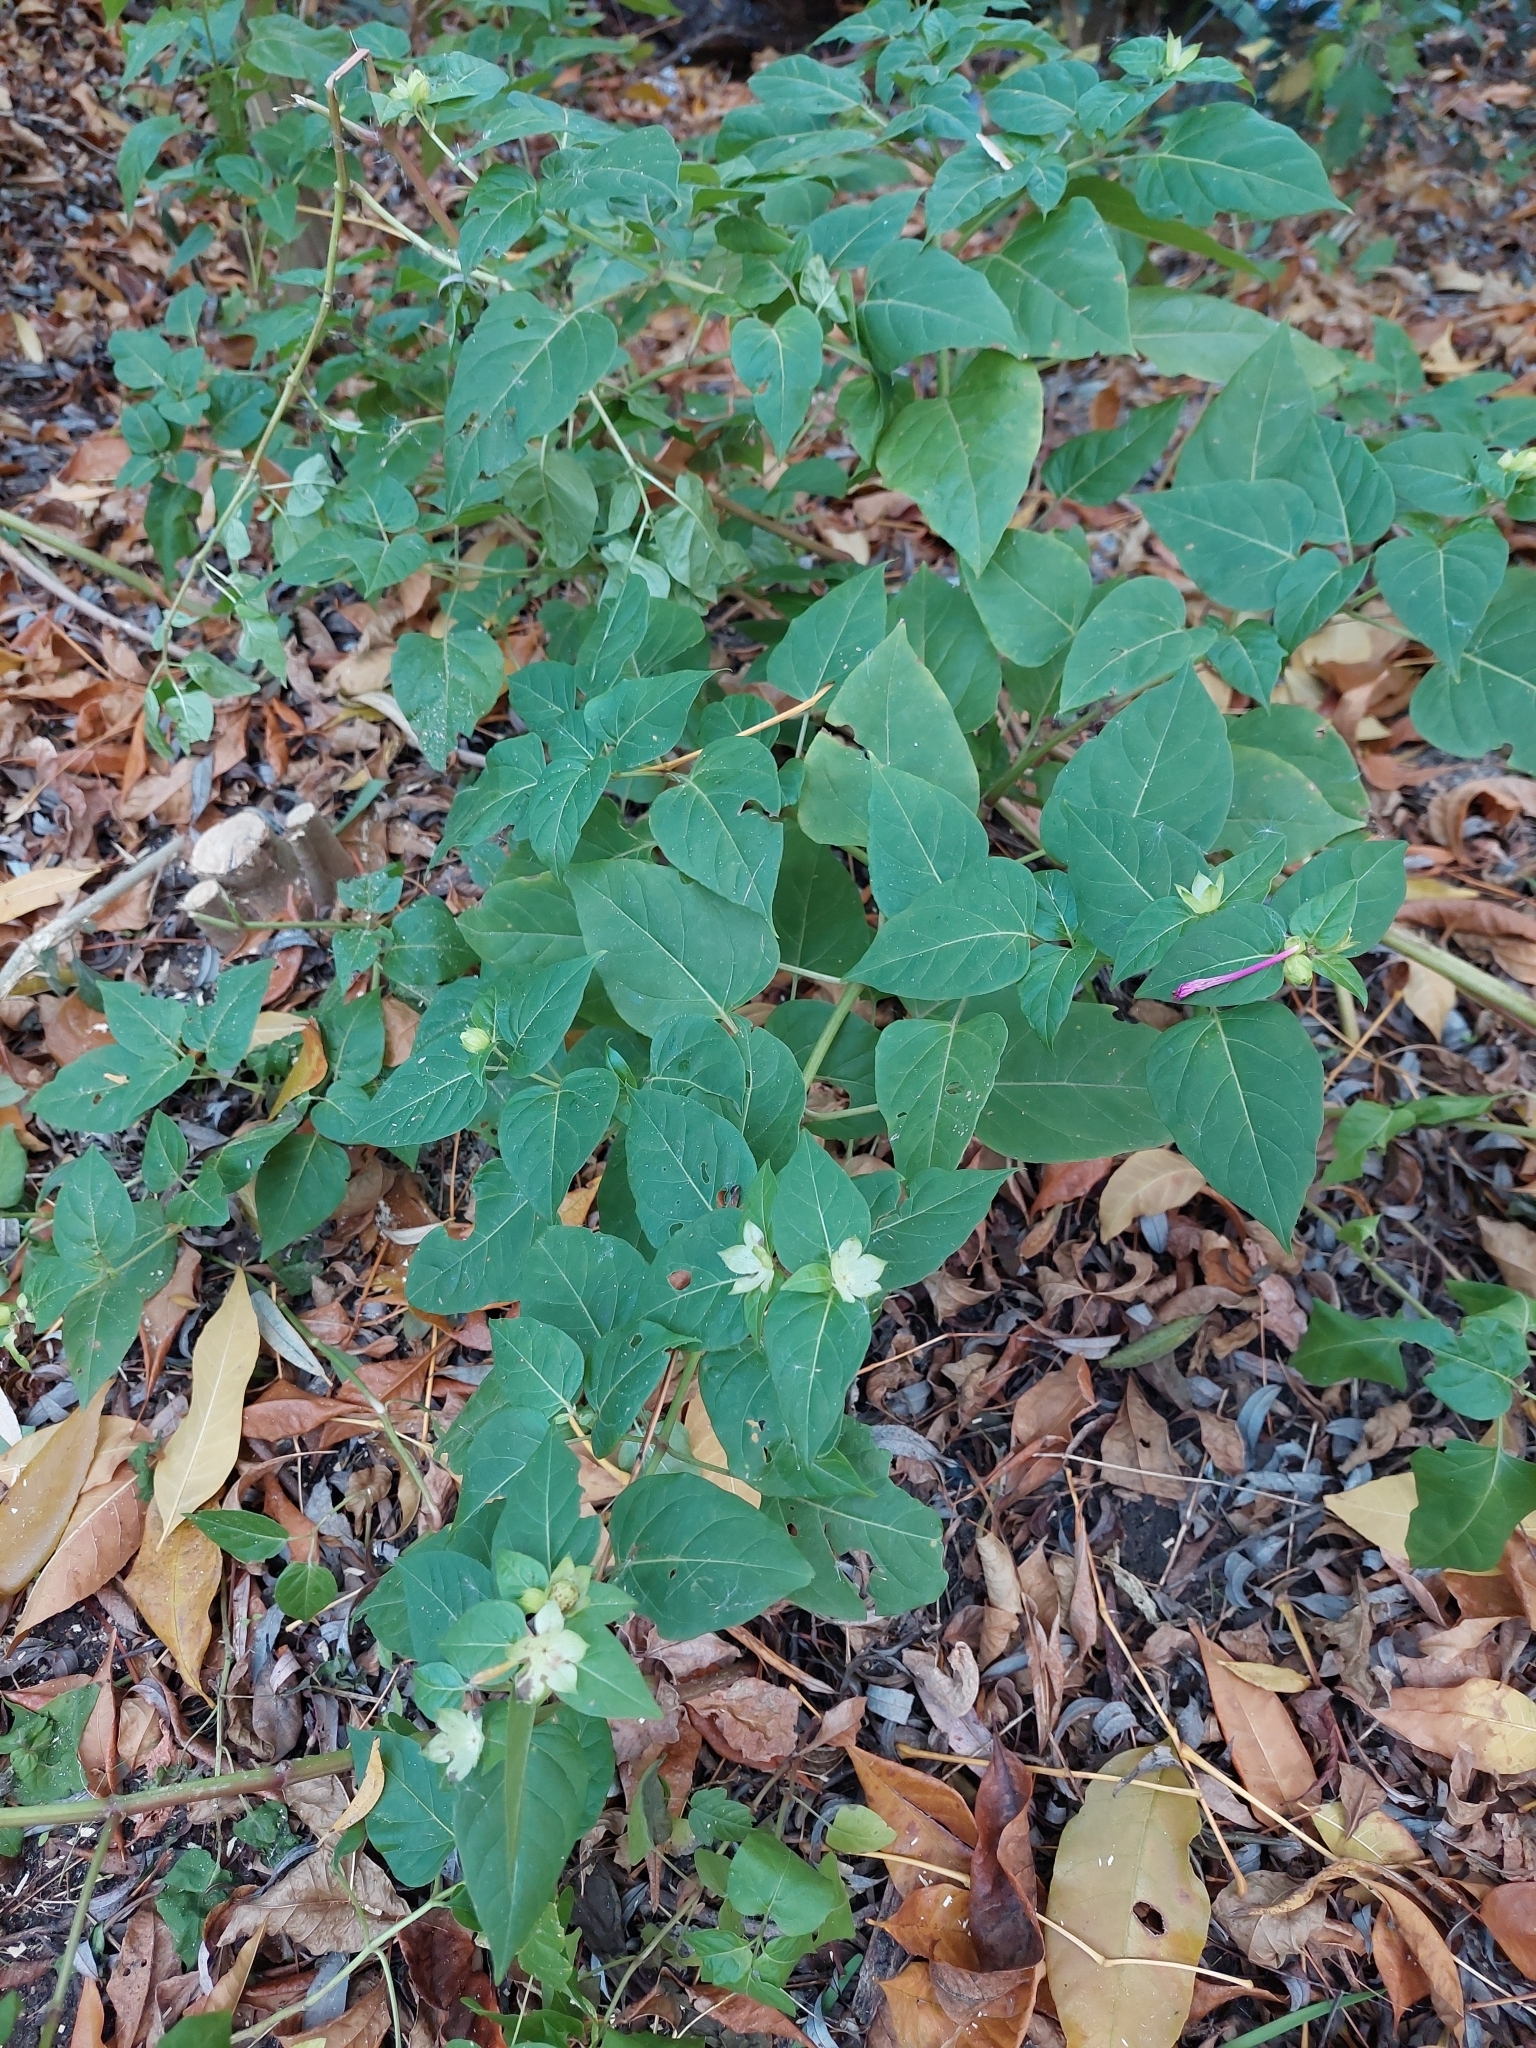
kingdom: Plantae
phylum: Tracheophyta
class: Magnoliopsida
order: Caryophyllales
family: Nyctaginaceae
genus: Mirabilis
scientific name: Mirabilis jalapa
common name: Marvel-of-peru
